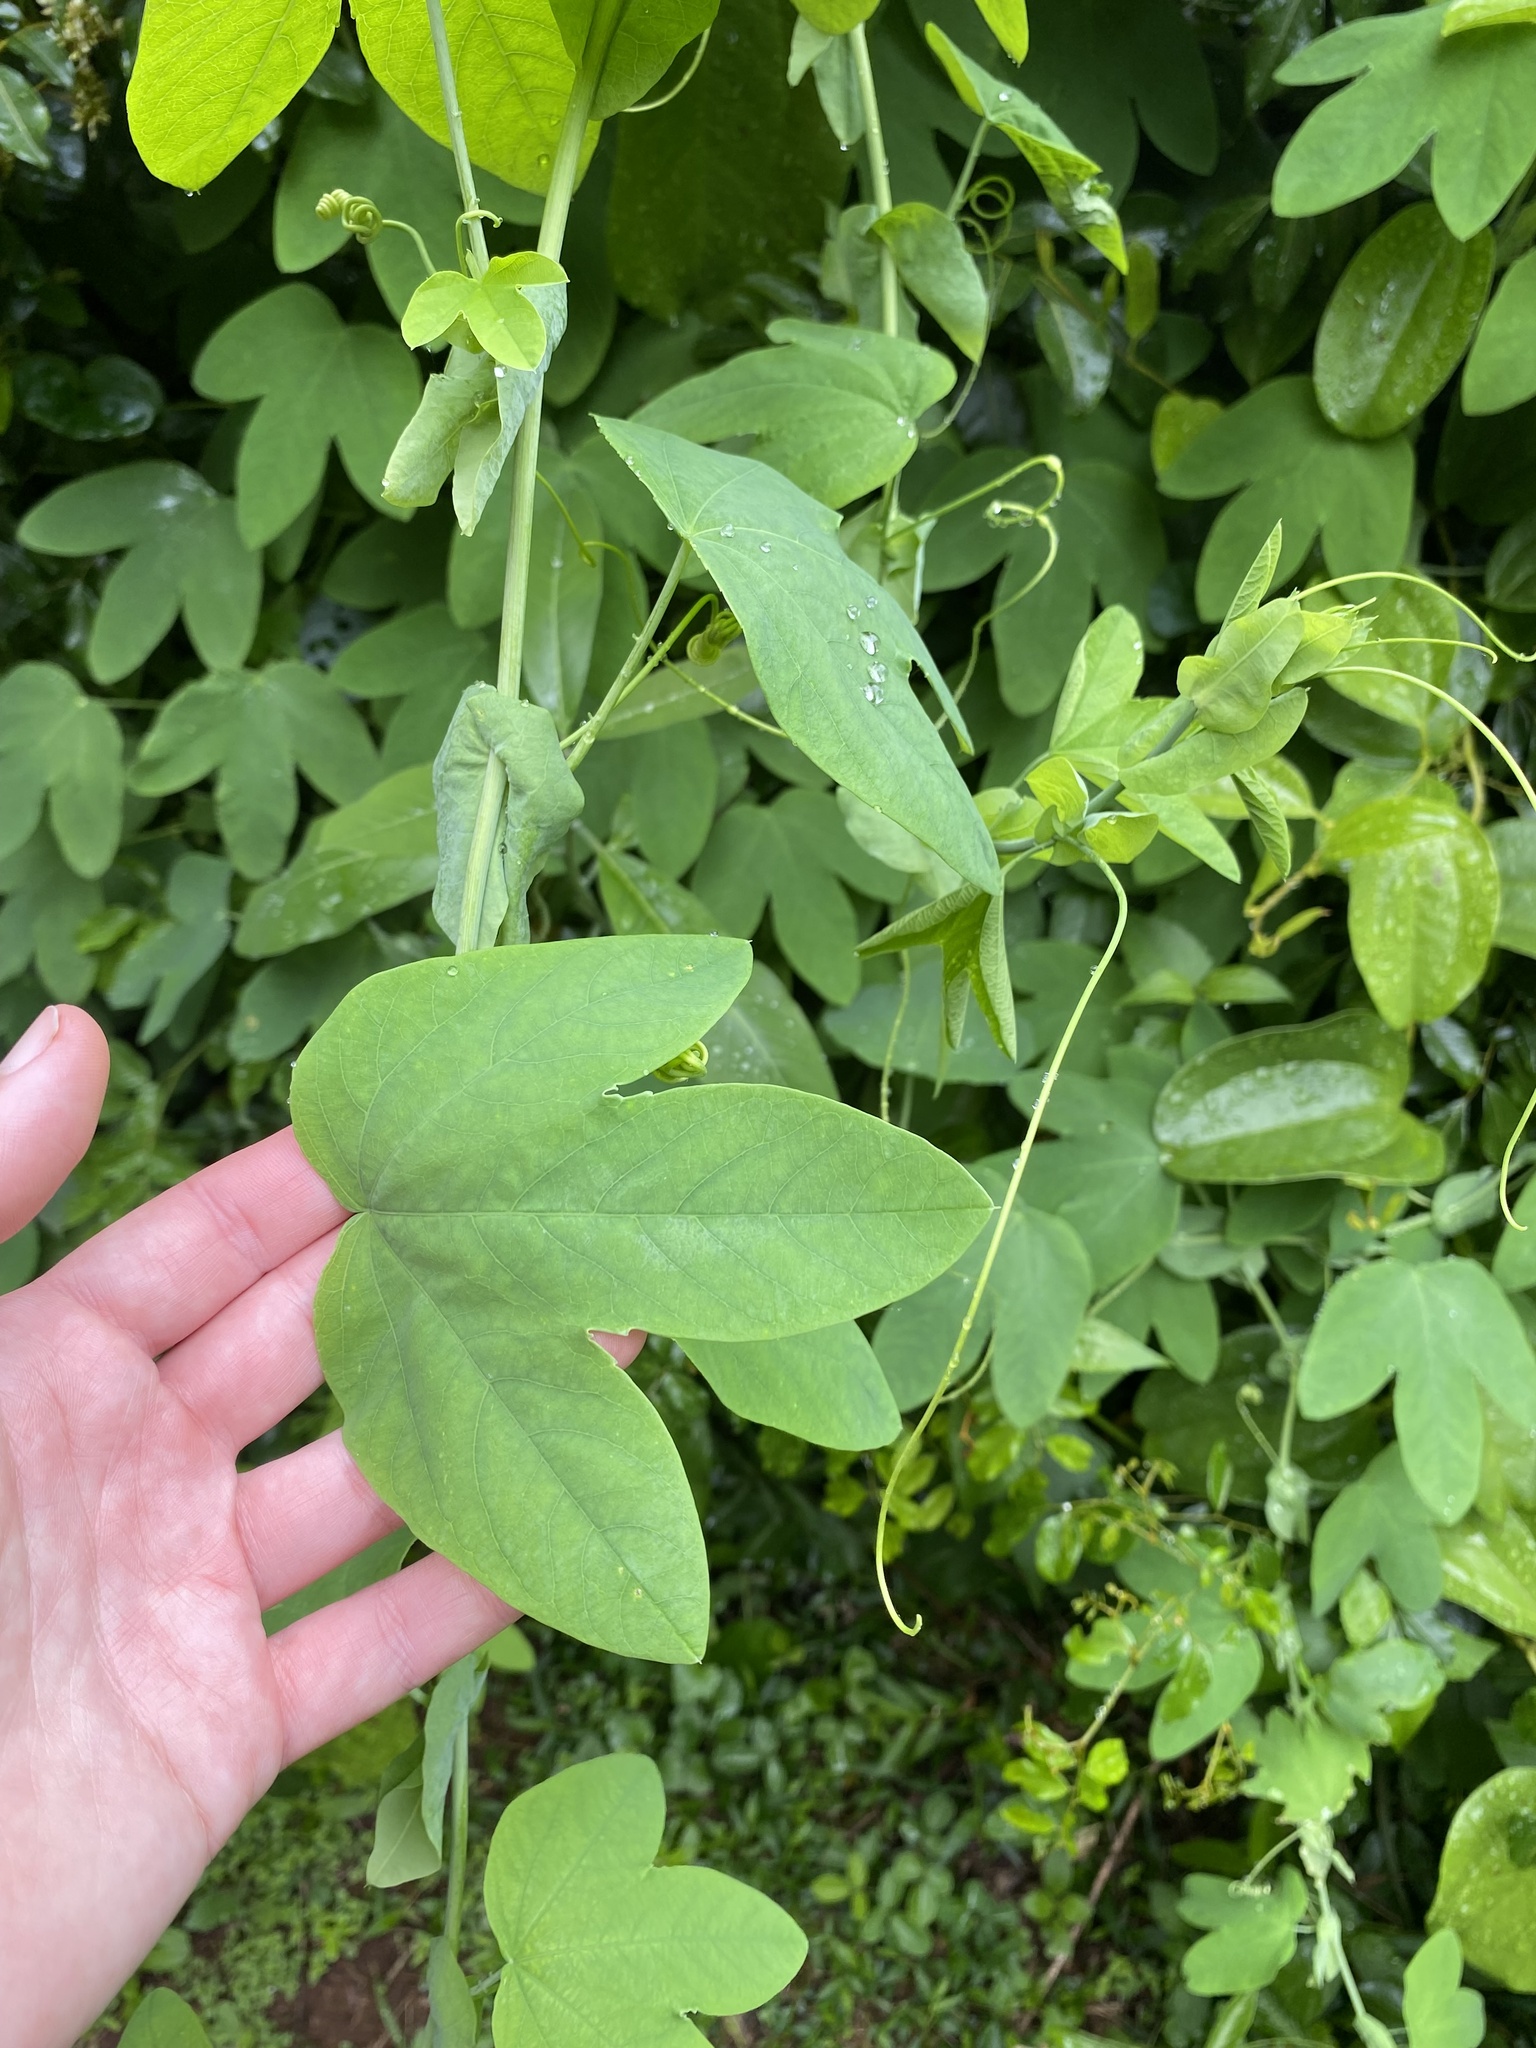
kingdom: Plantae
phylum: Tracheophyta
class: Magnoliopsida
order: Malpighiales
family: Passifloraceae
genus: Passiflora
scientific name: Passiflora subpeltata
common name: White passionflower
